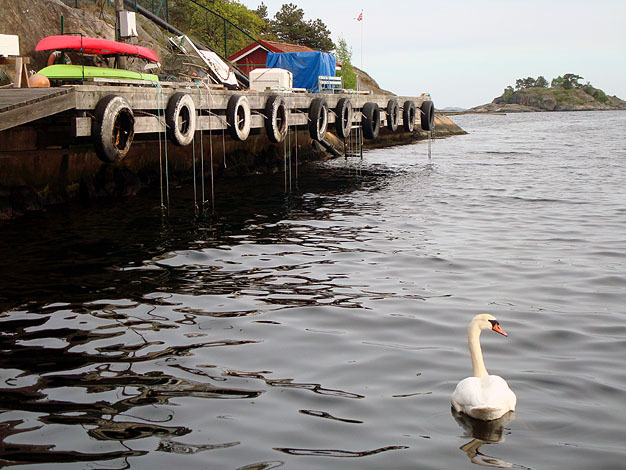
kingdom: Animalia
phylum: Chordata
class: Aves
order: Anseriformes
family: Anatidae
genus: Cygnus
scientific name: Cygnus olor
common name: Mute swan
